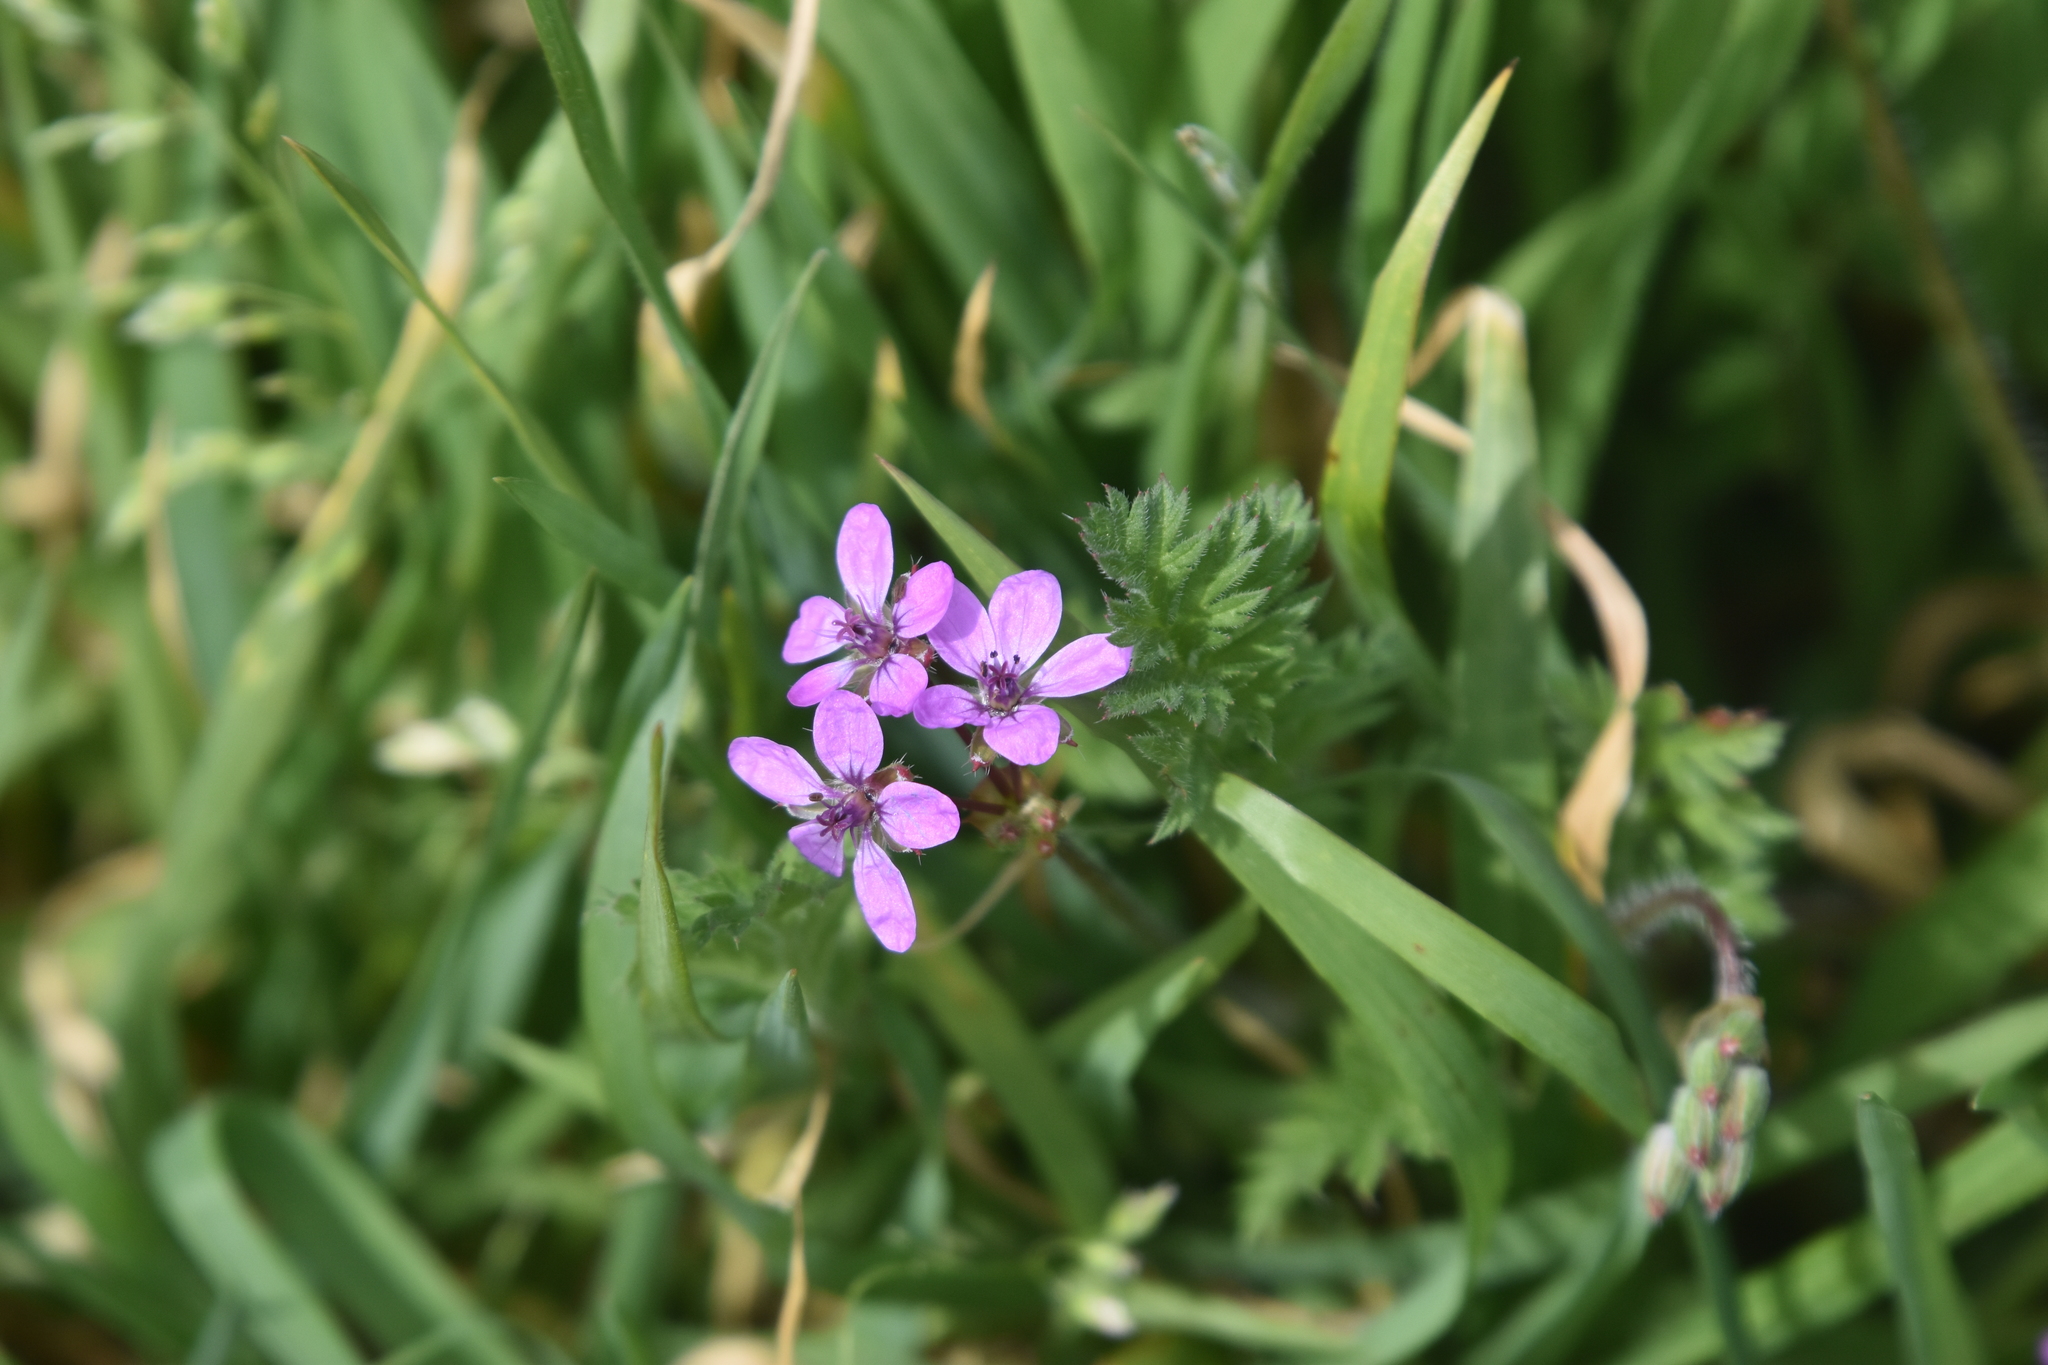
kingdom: Plantae
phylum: Tracheophyta
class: Magnoliopsida
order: Geraniales
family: Geraniaceae
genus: Erodium
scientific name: Erodium cicutarium
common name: Common stork's-bill
